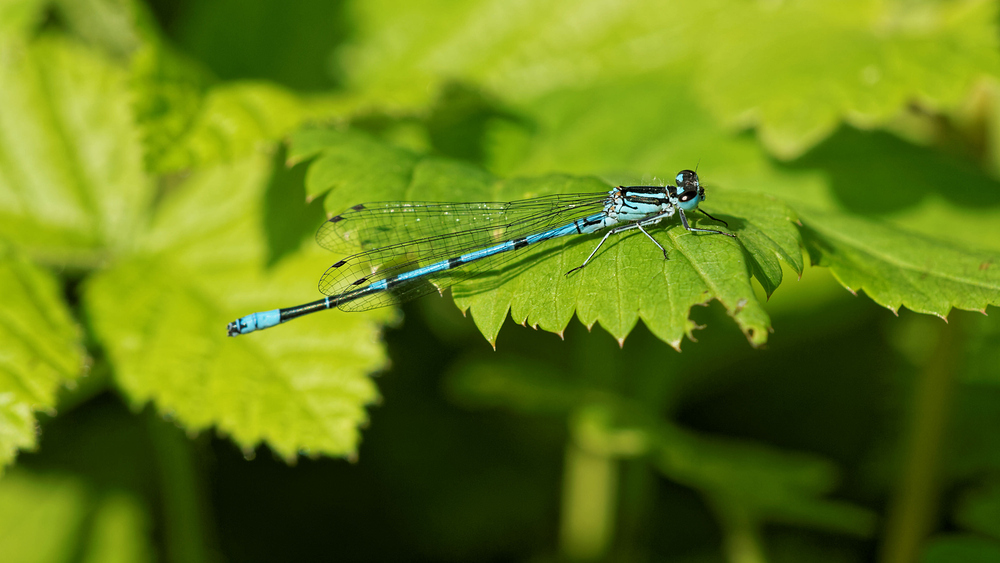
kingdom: Animalia
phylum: Arthropoda
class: Insecta
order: Odonata
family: Coenagrionidae
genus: Coenagrion
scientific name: Coenagrion puella
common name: Azure damselfly
